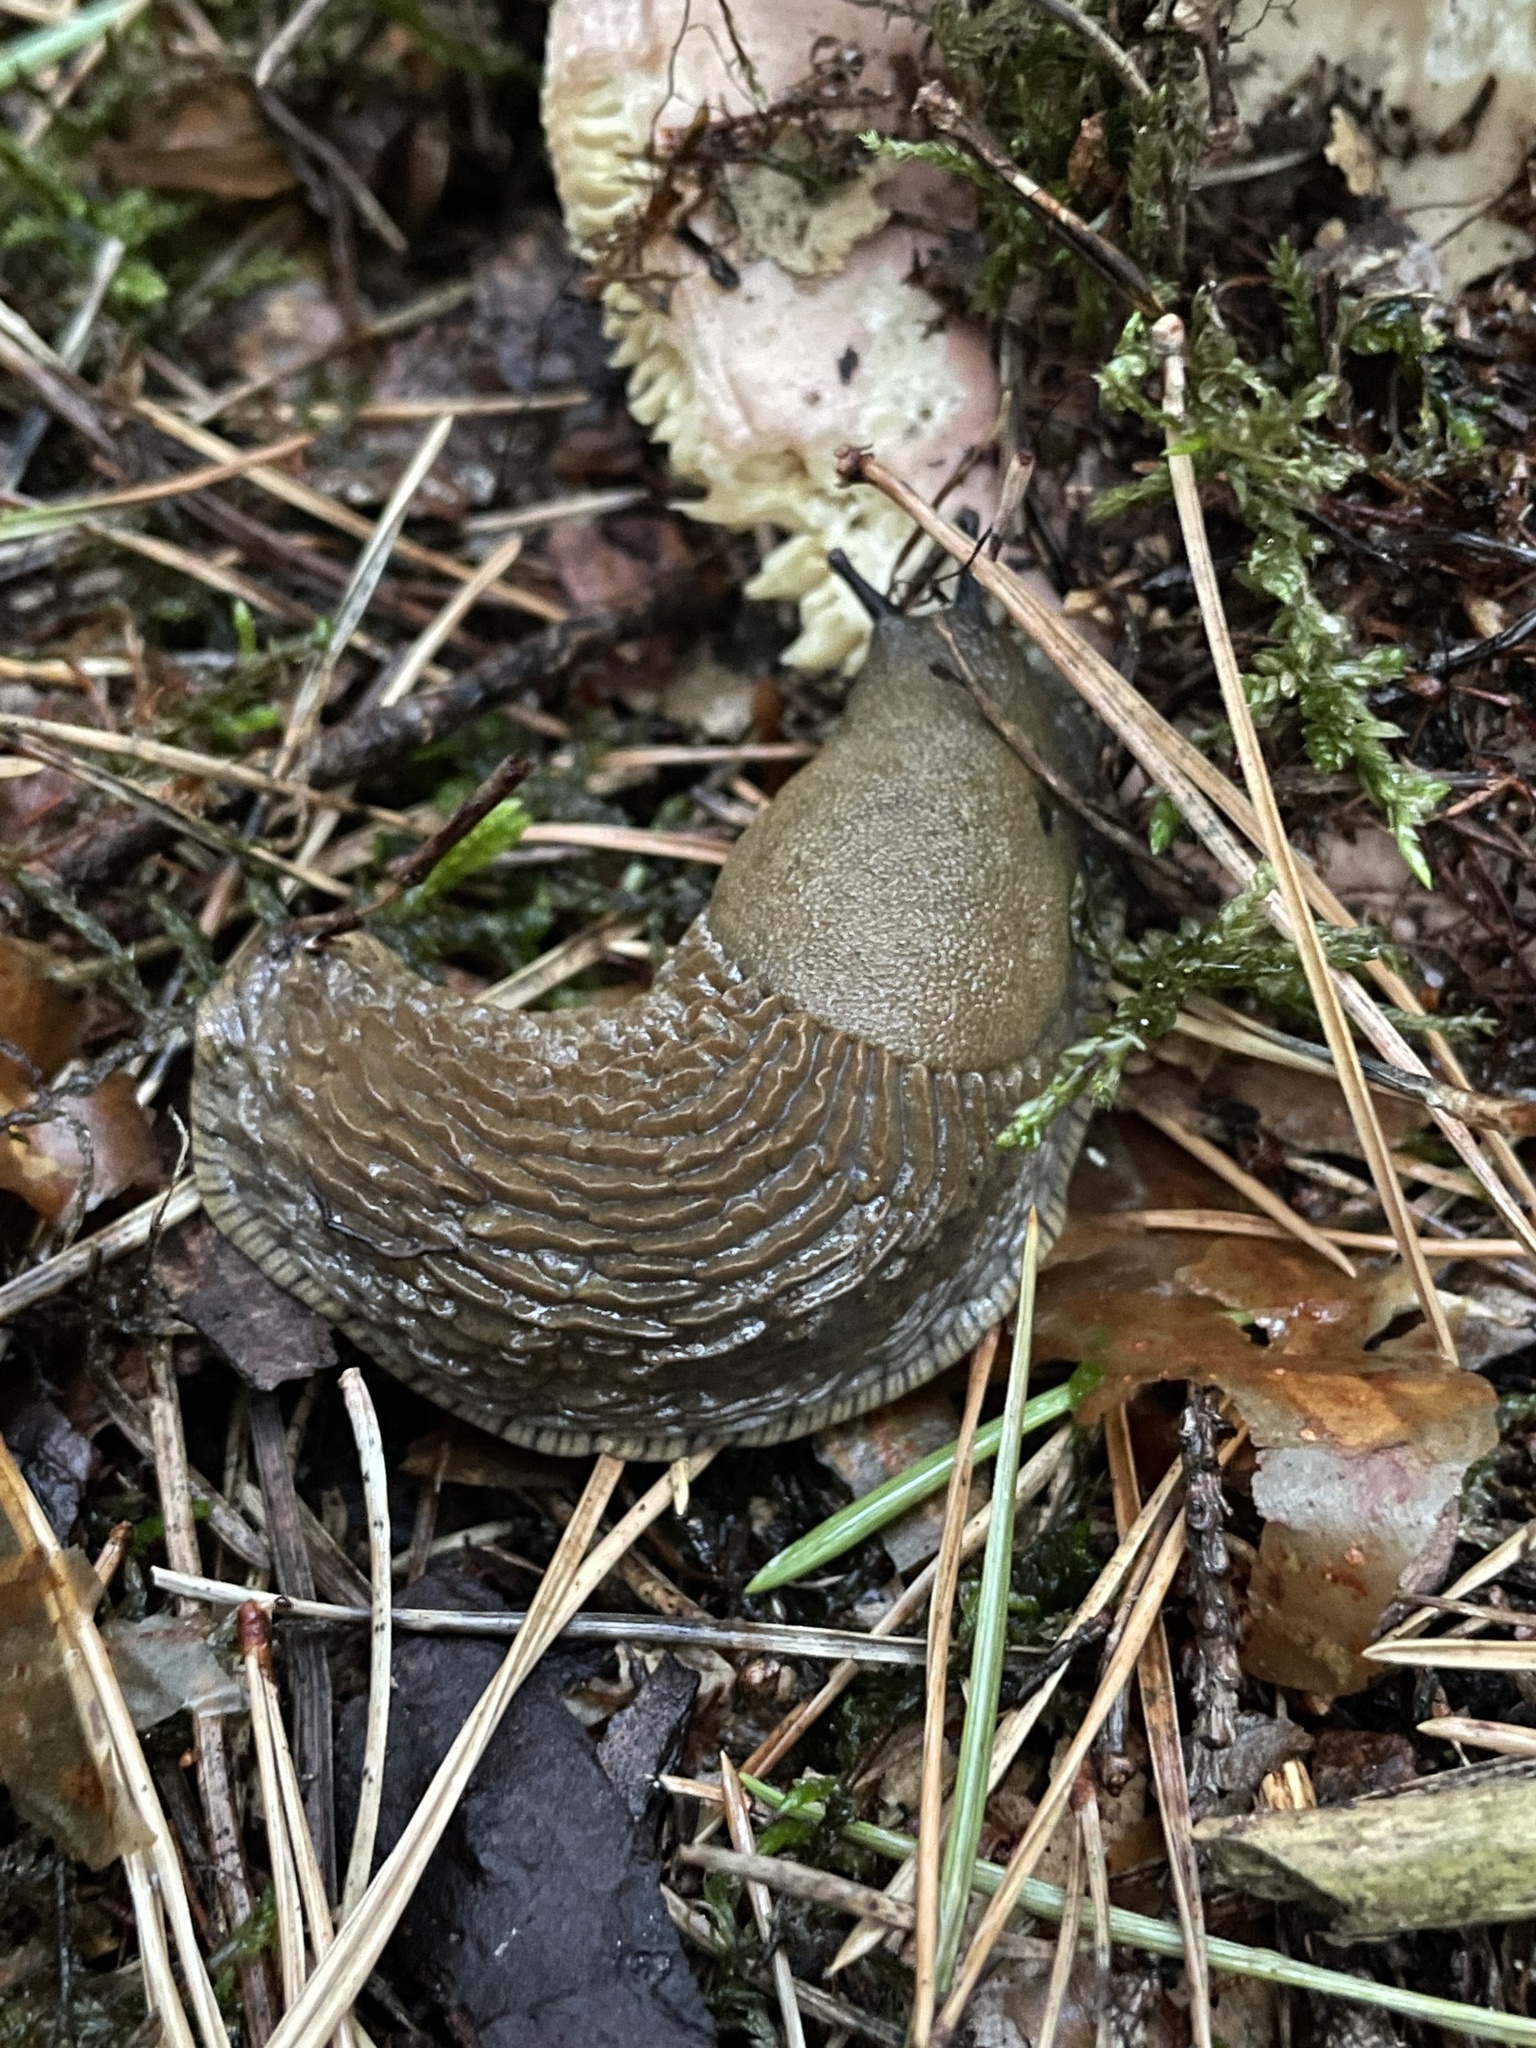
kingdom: Animalia
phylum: Mollusca
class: Gastropoda
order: Stylommatophora
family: Arionidae
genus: Arion
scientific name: Arion vulgaris
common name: Lusitanian slug
